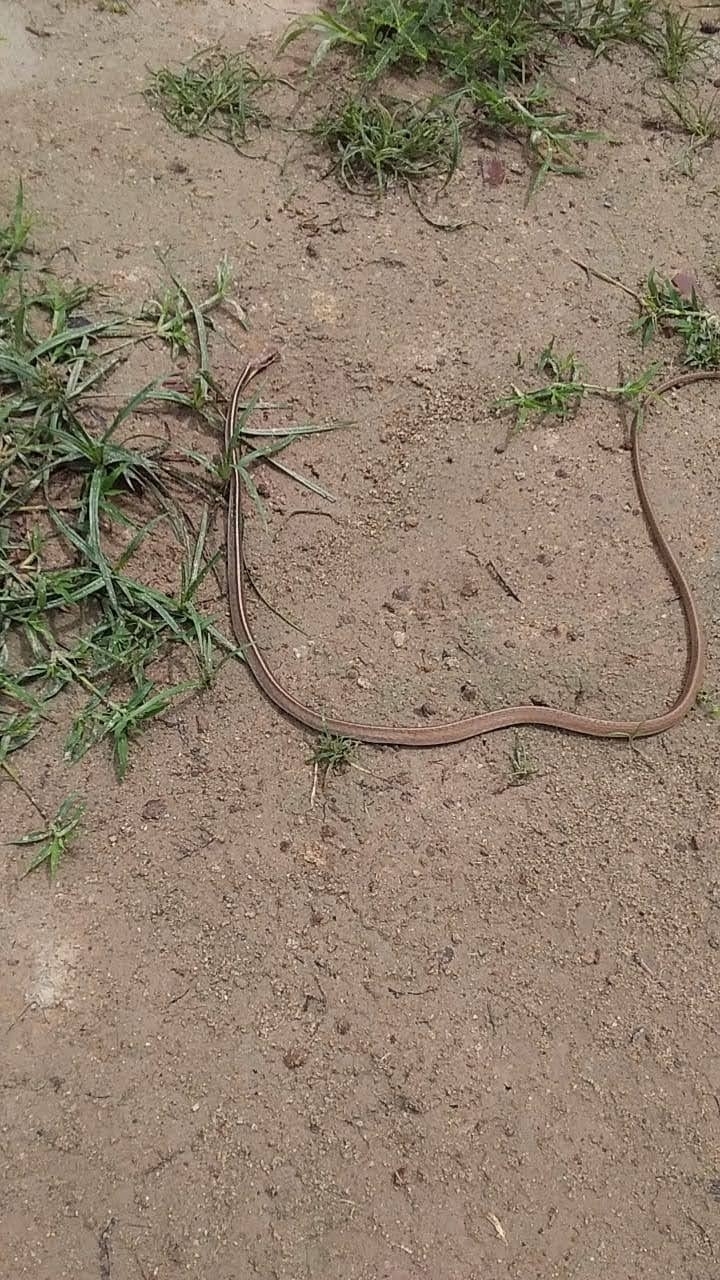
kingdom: Animalia
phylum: Chordata
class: Squamata
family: Colubridae
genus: Chironius
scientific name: Chironius flavolineatus
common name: Boettger's sipo
